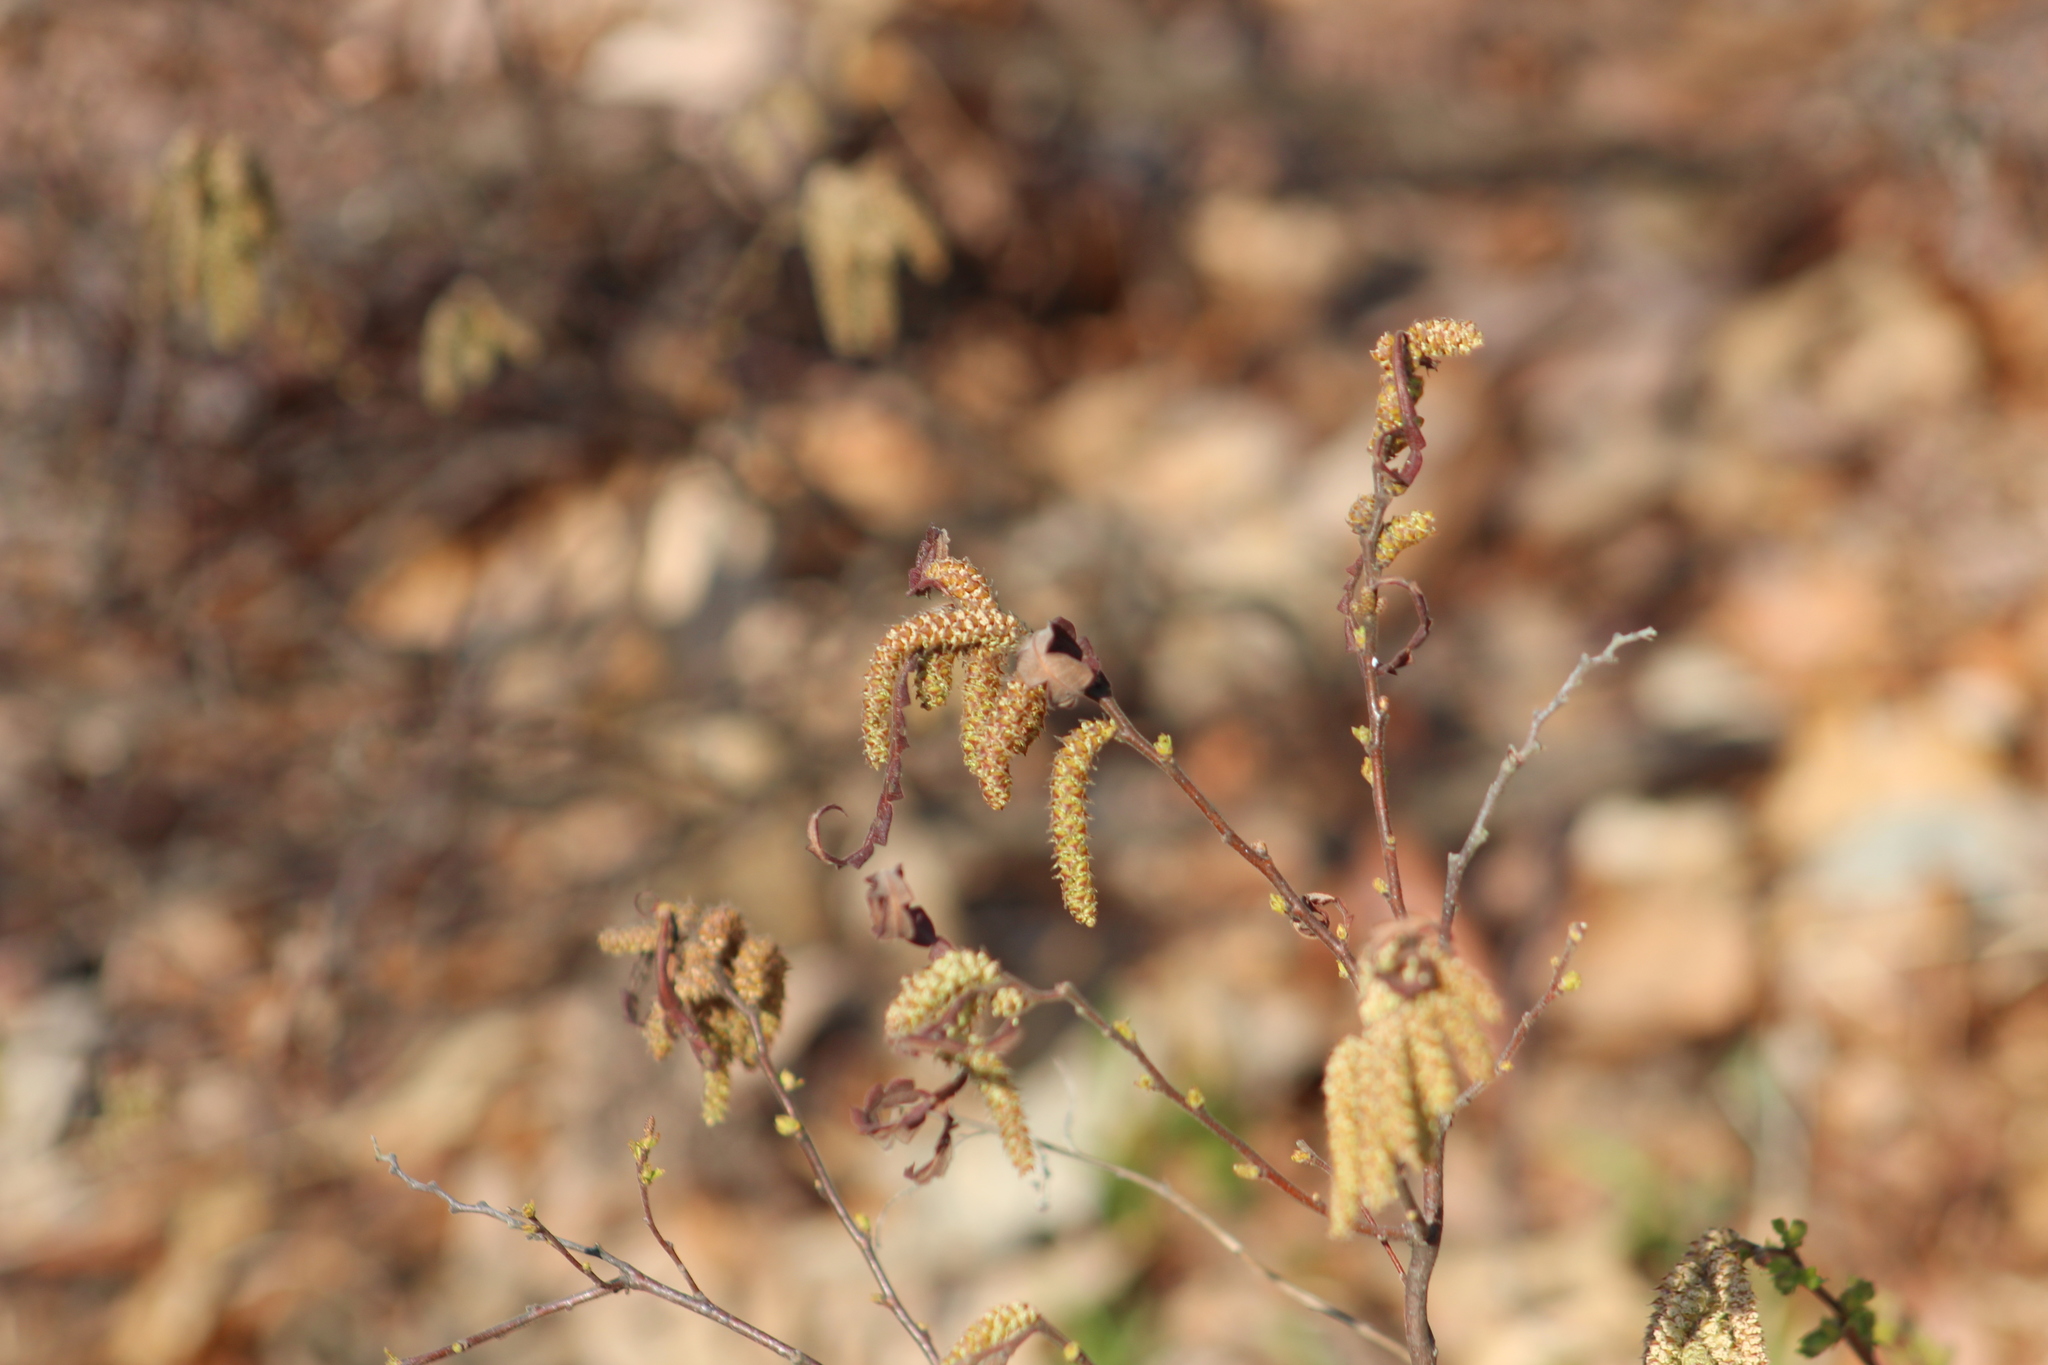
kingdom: Plantae
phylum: Tracheophyta
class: Magnoliopsida
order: Fagales
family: Myricaceae
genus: Comptonia
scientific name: Comptonia peregrina
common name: Sweet-fern
